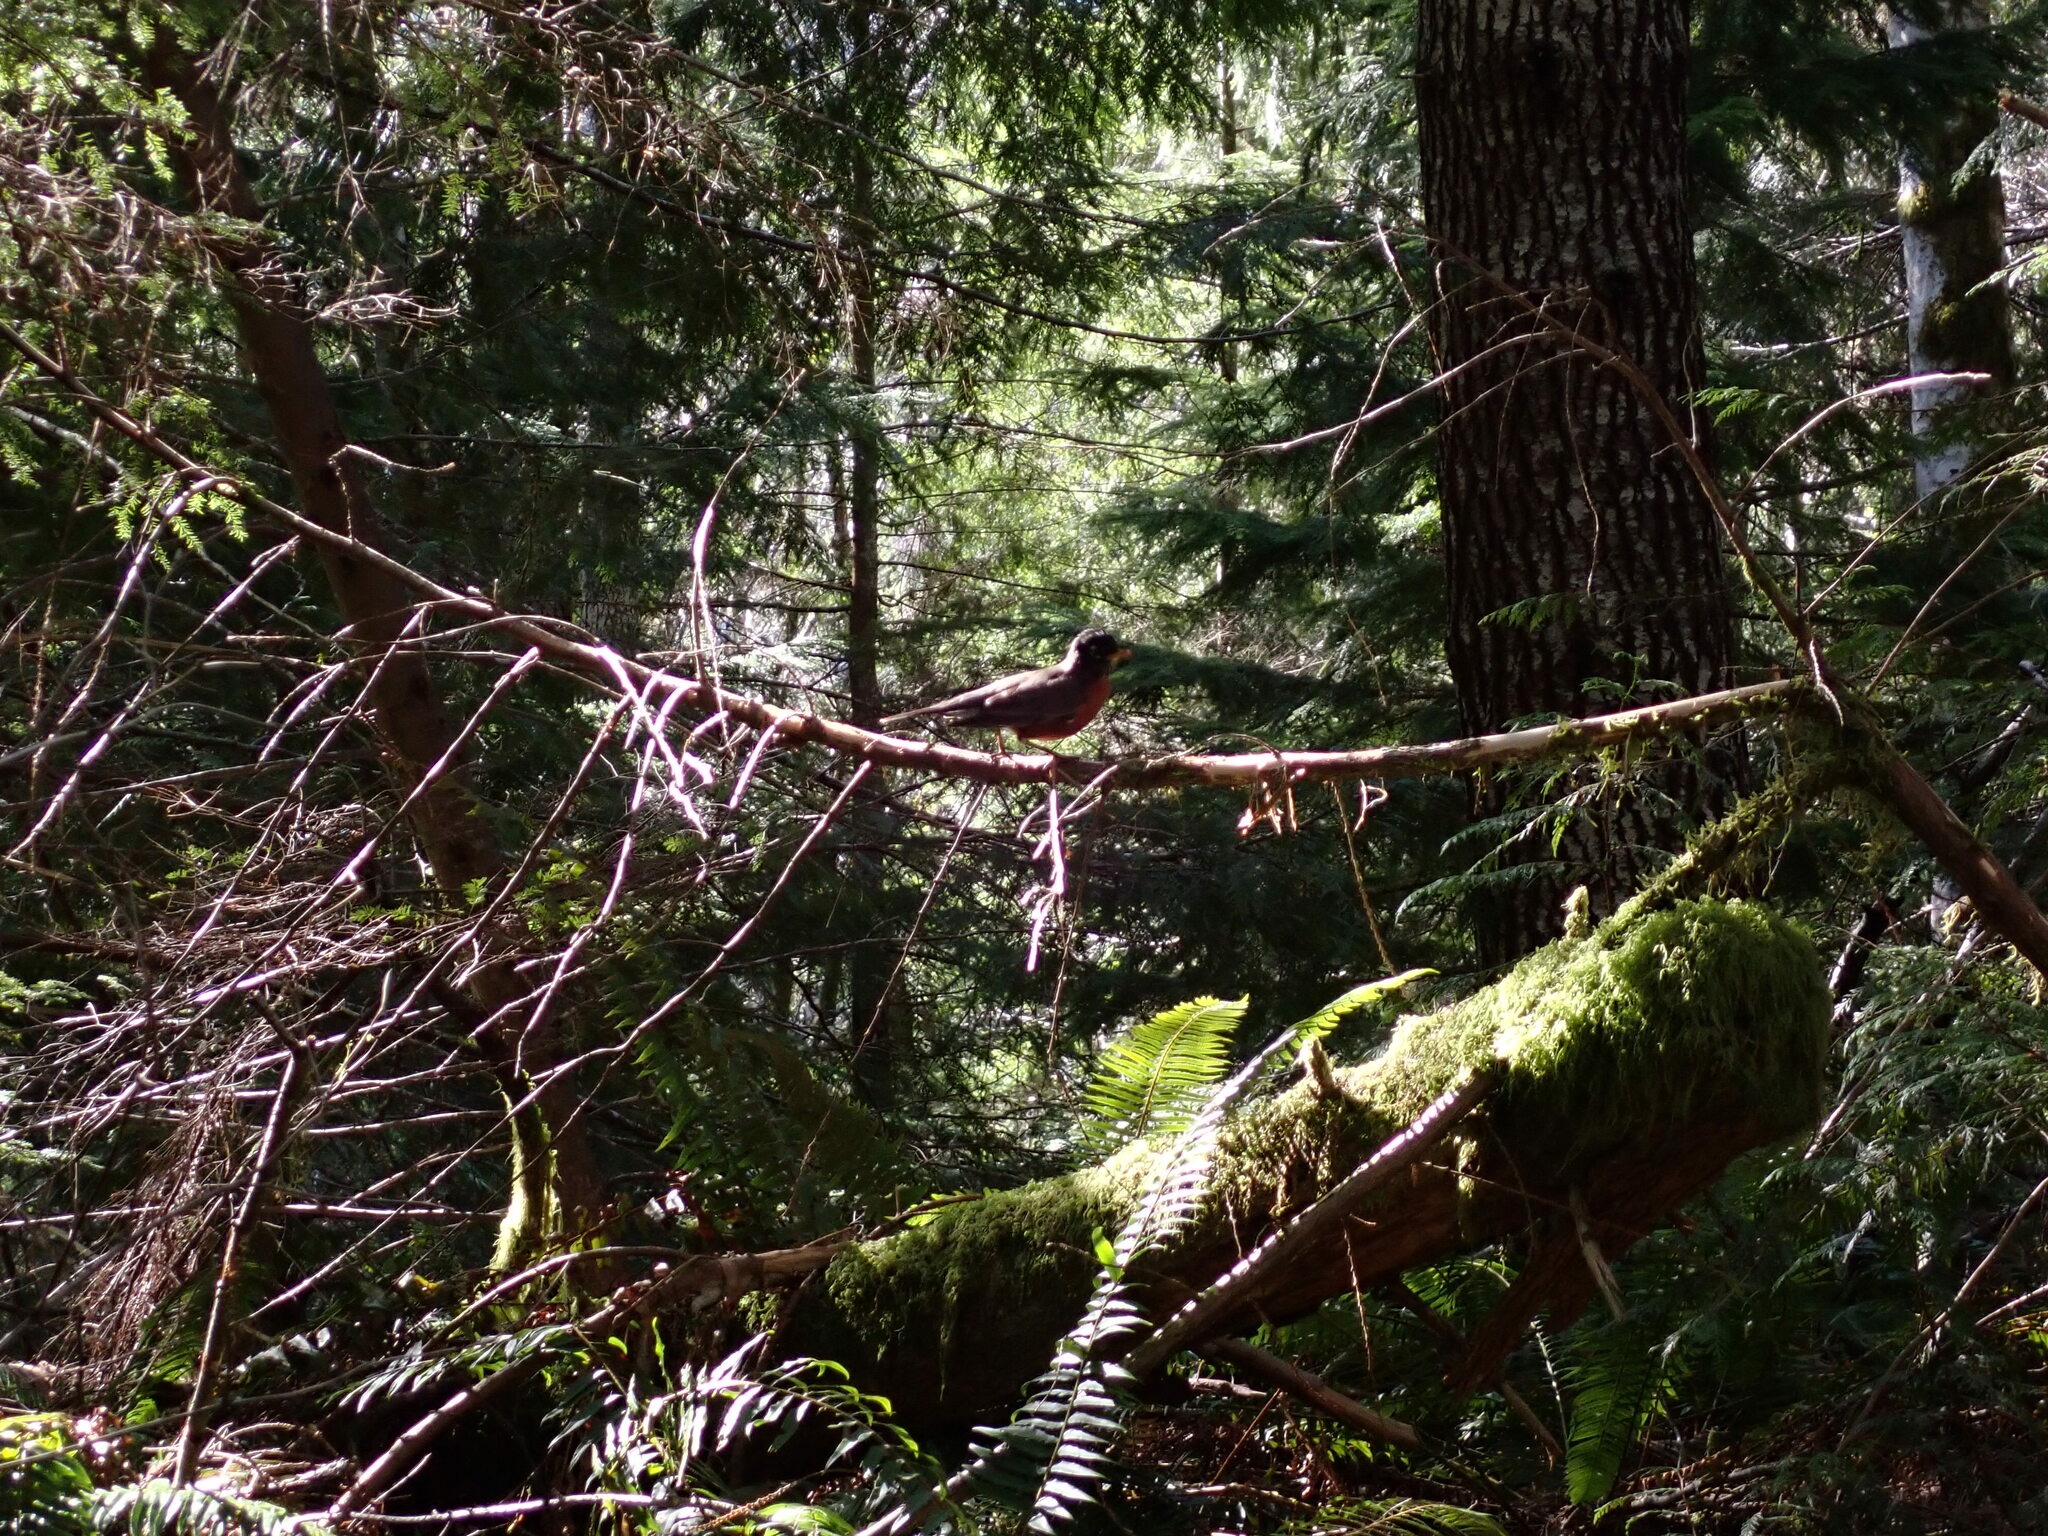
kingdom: Animalia
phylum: Chordata
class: Aves
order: Passeriformes
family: Turdidae
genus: Turdus
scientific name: Turdus migratorius
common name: American robin
